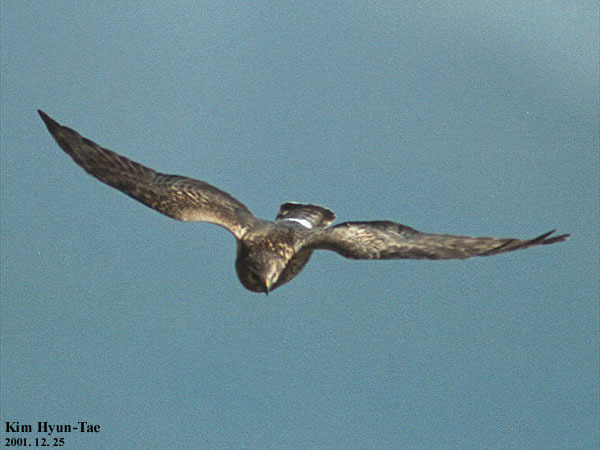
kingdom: Animalia
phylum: Chordata
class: Aves
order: Accipitriformes
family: Accipitridae
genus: Circus
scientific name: Circus cyaneus
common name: Hen harrier
